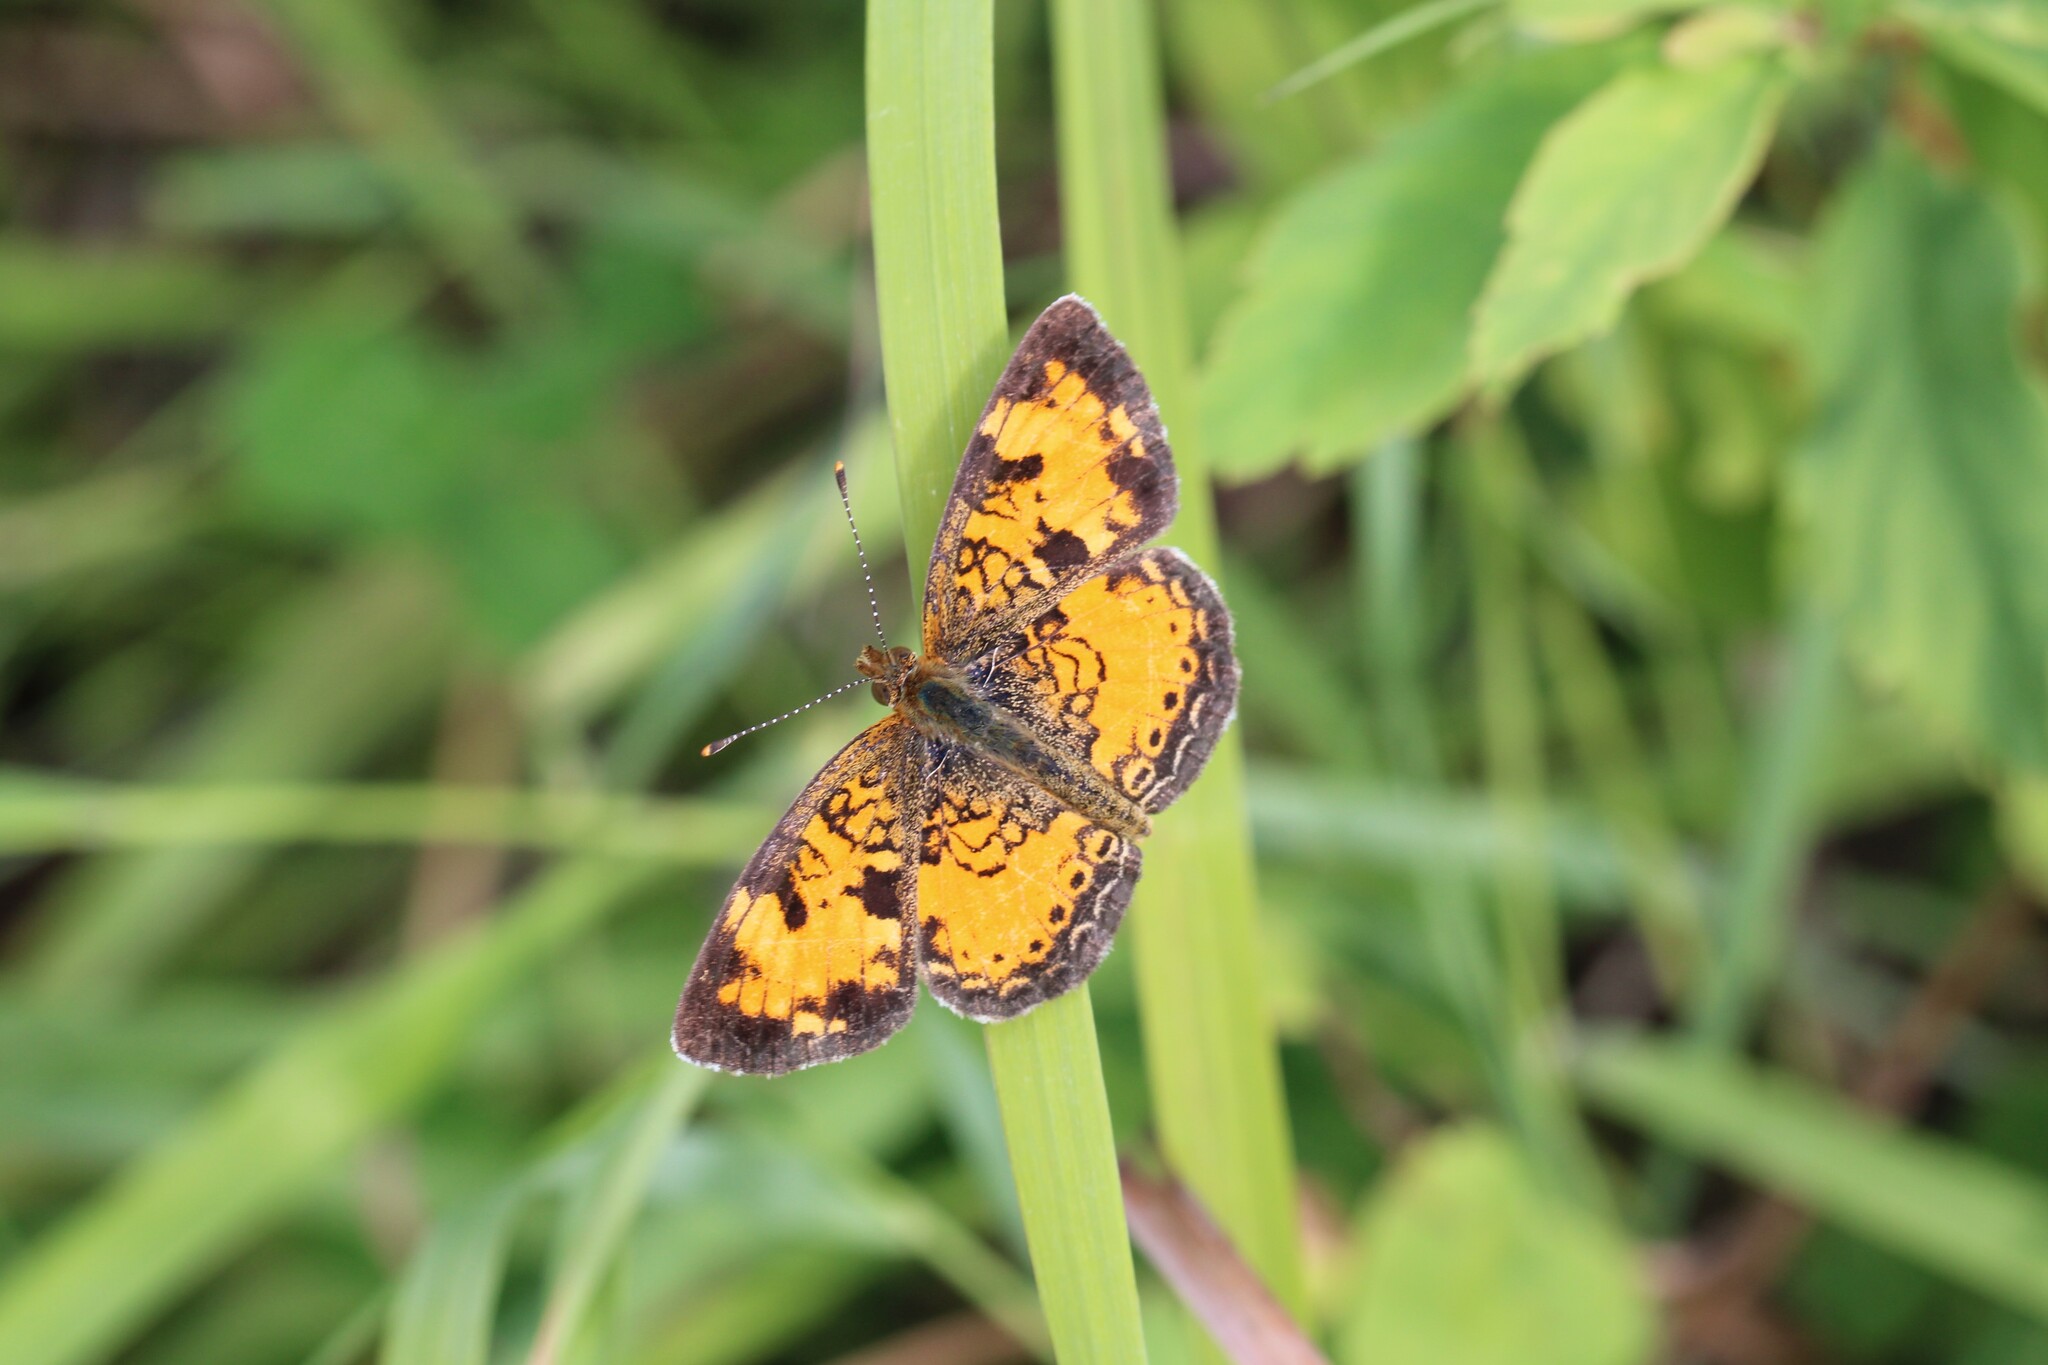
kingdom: Animalia
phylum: Arthropoda
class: Insecta
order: Lepidoptera
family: Nymphalidae
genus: Phyciodes
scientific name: Phyciodes tharos
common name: Pearl crescent
